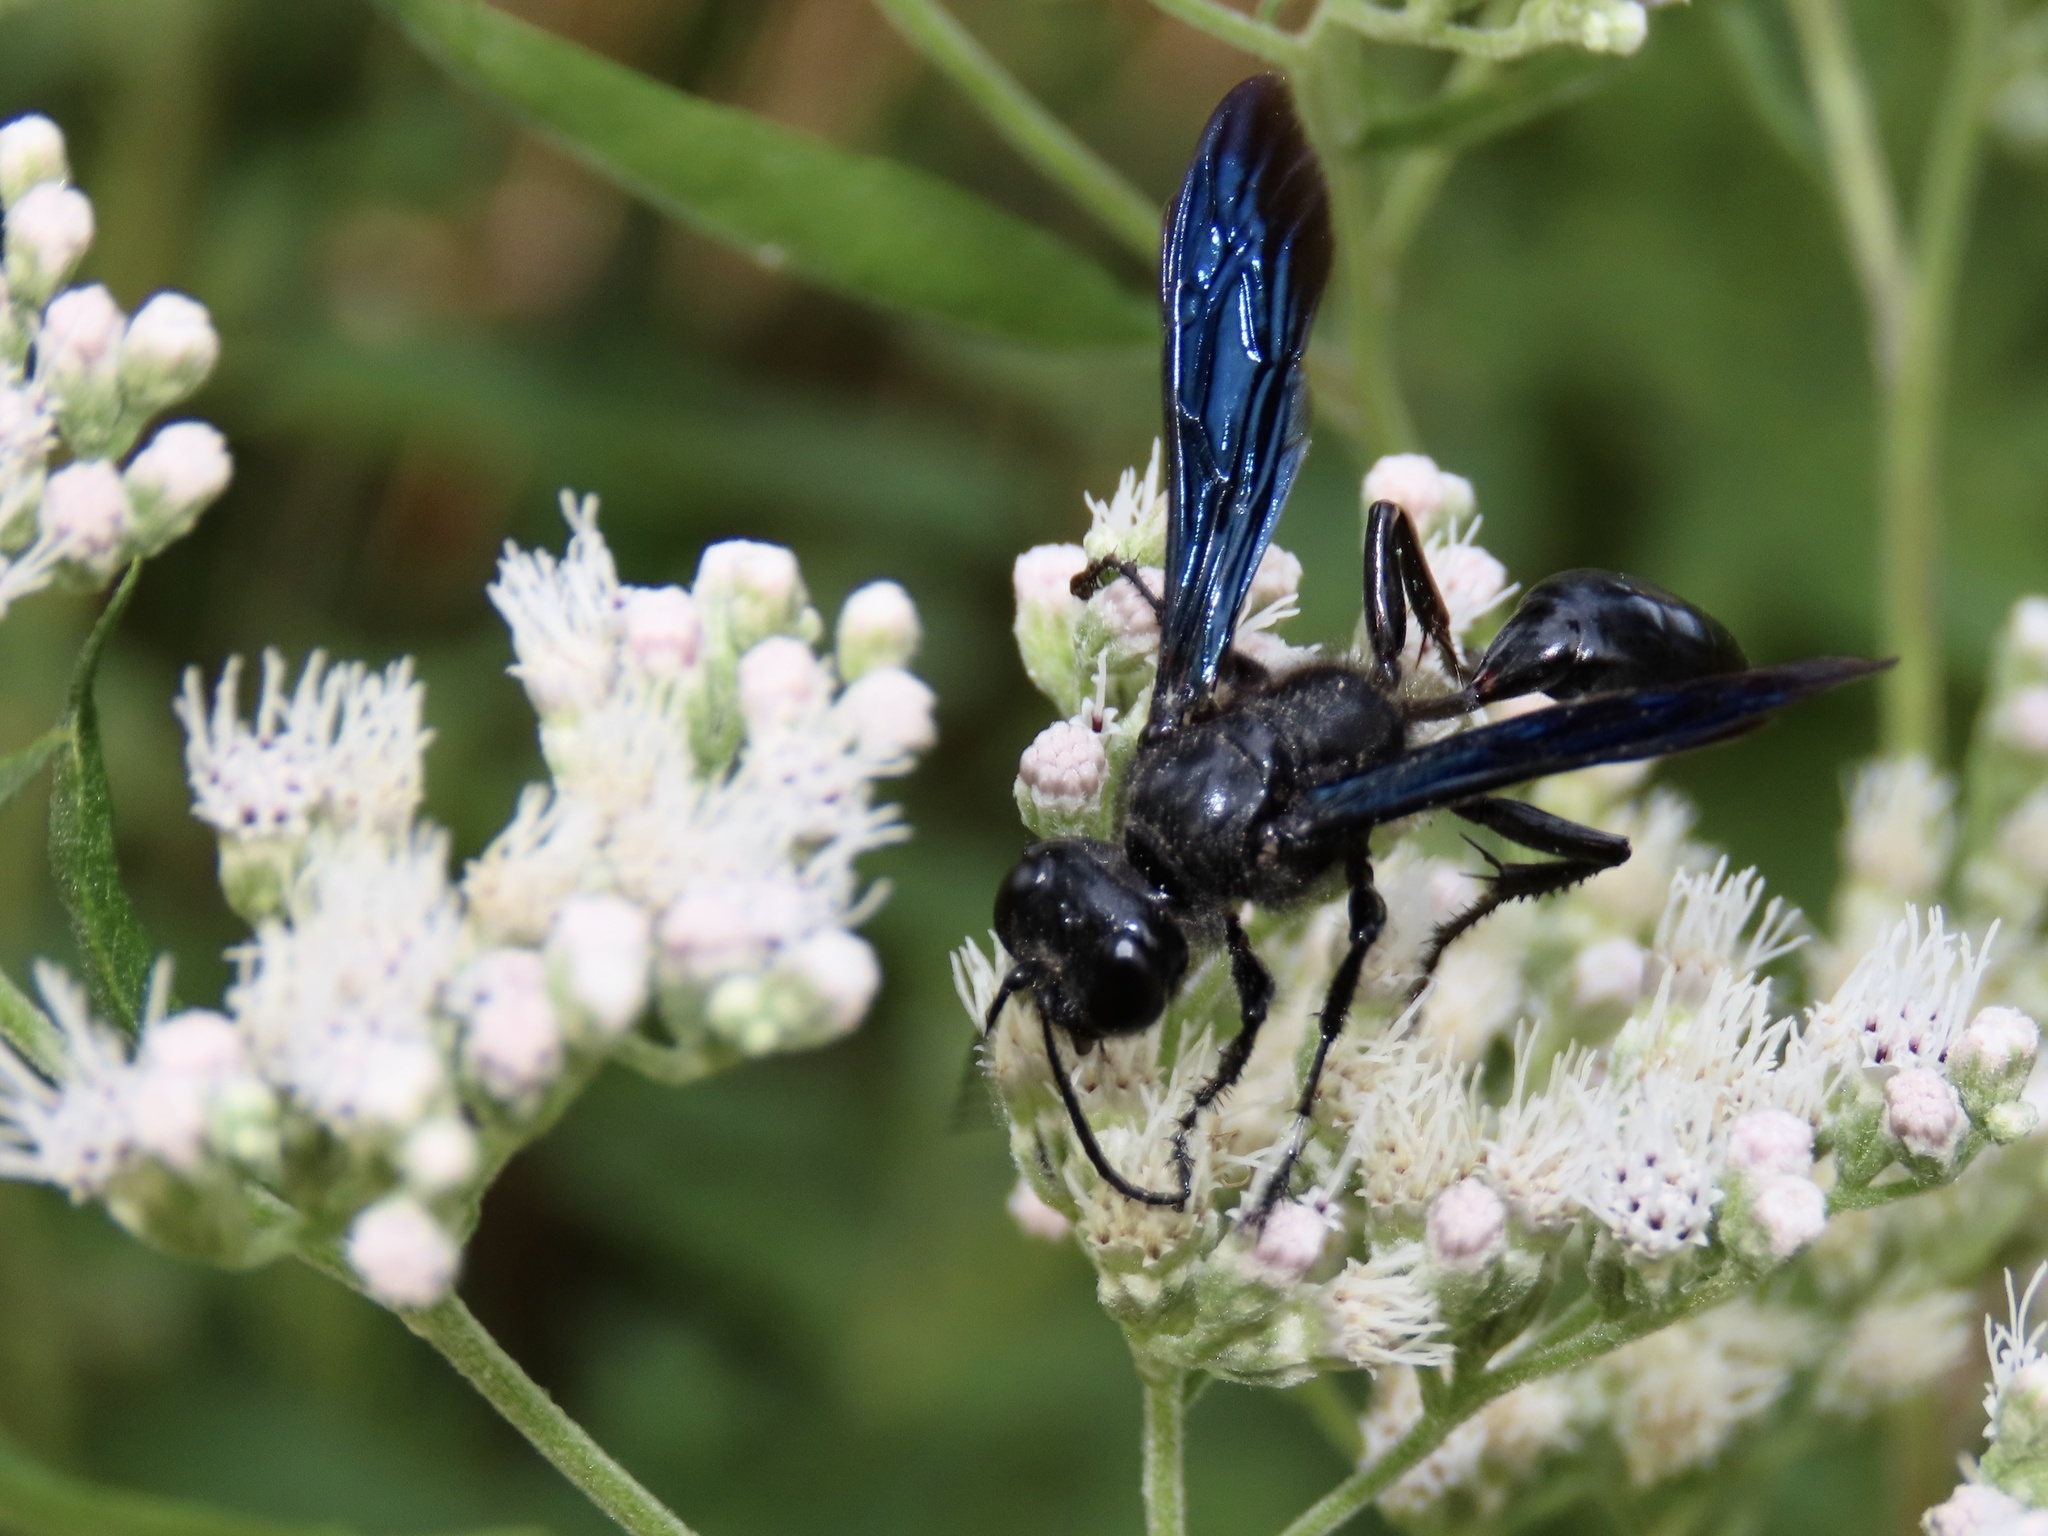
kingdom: Animalia
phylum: Arthropoda
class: Insecta
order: Hymenoptera
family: Sphecidae
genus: Isodontia
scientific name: Isodontia philadelphica
